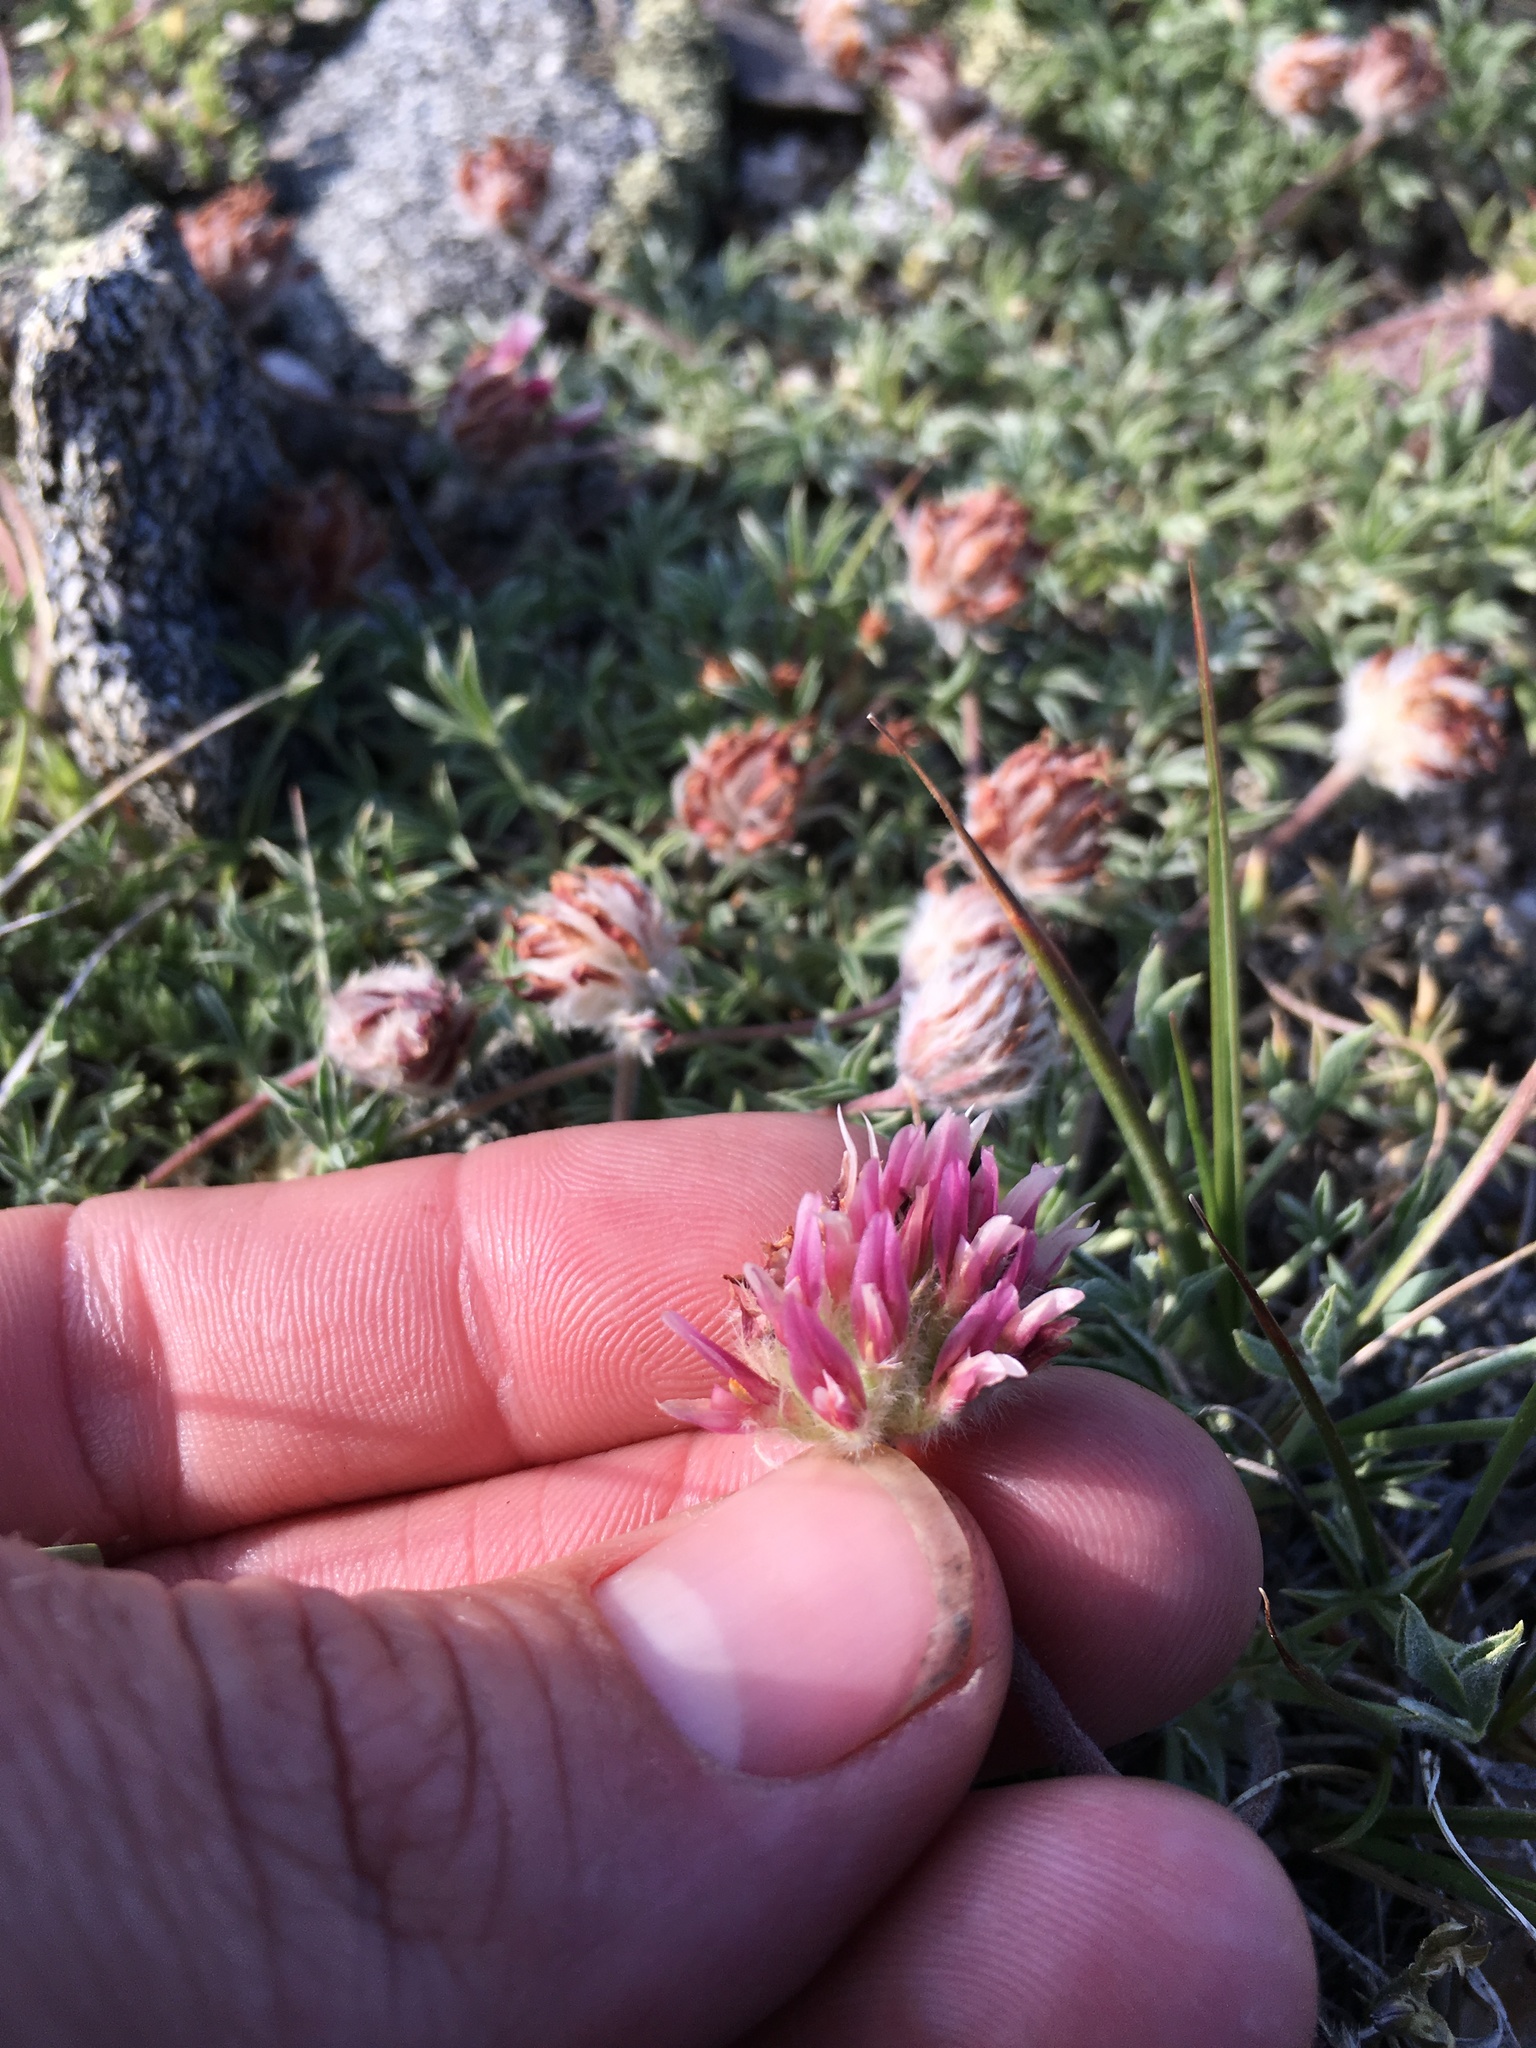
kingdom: Plantae
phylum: Tracheophyta
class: Magnoliopsida
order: Fabales
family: Fabaceae
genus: Trifolium
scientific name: Trifolium andersonii
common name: Anderson's clover
